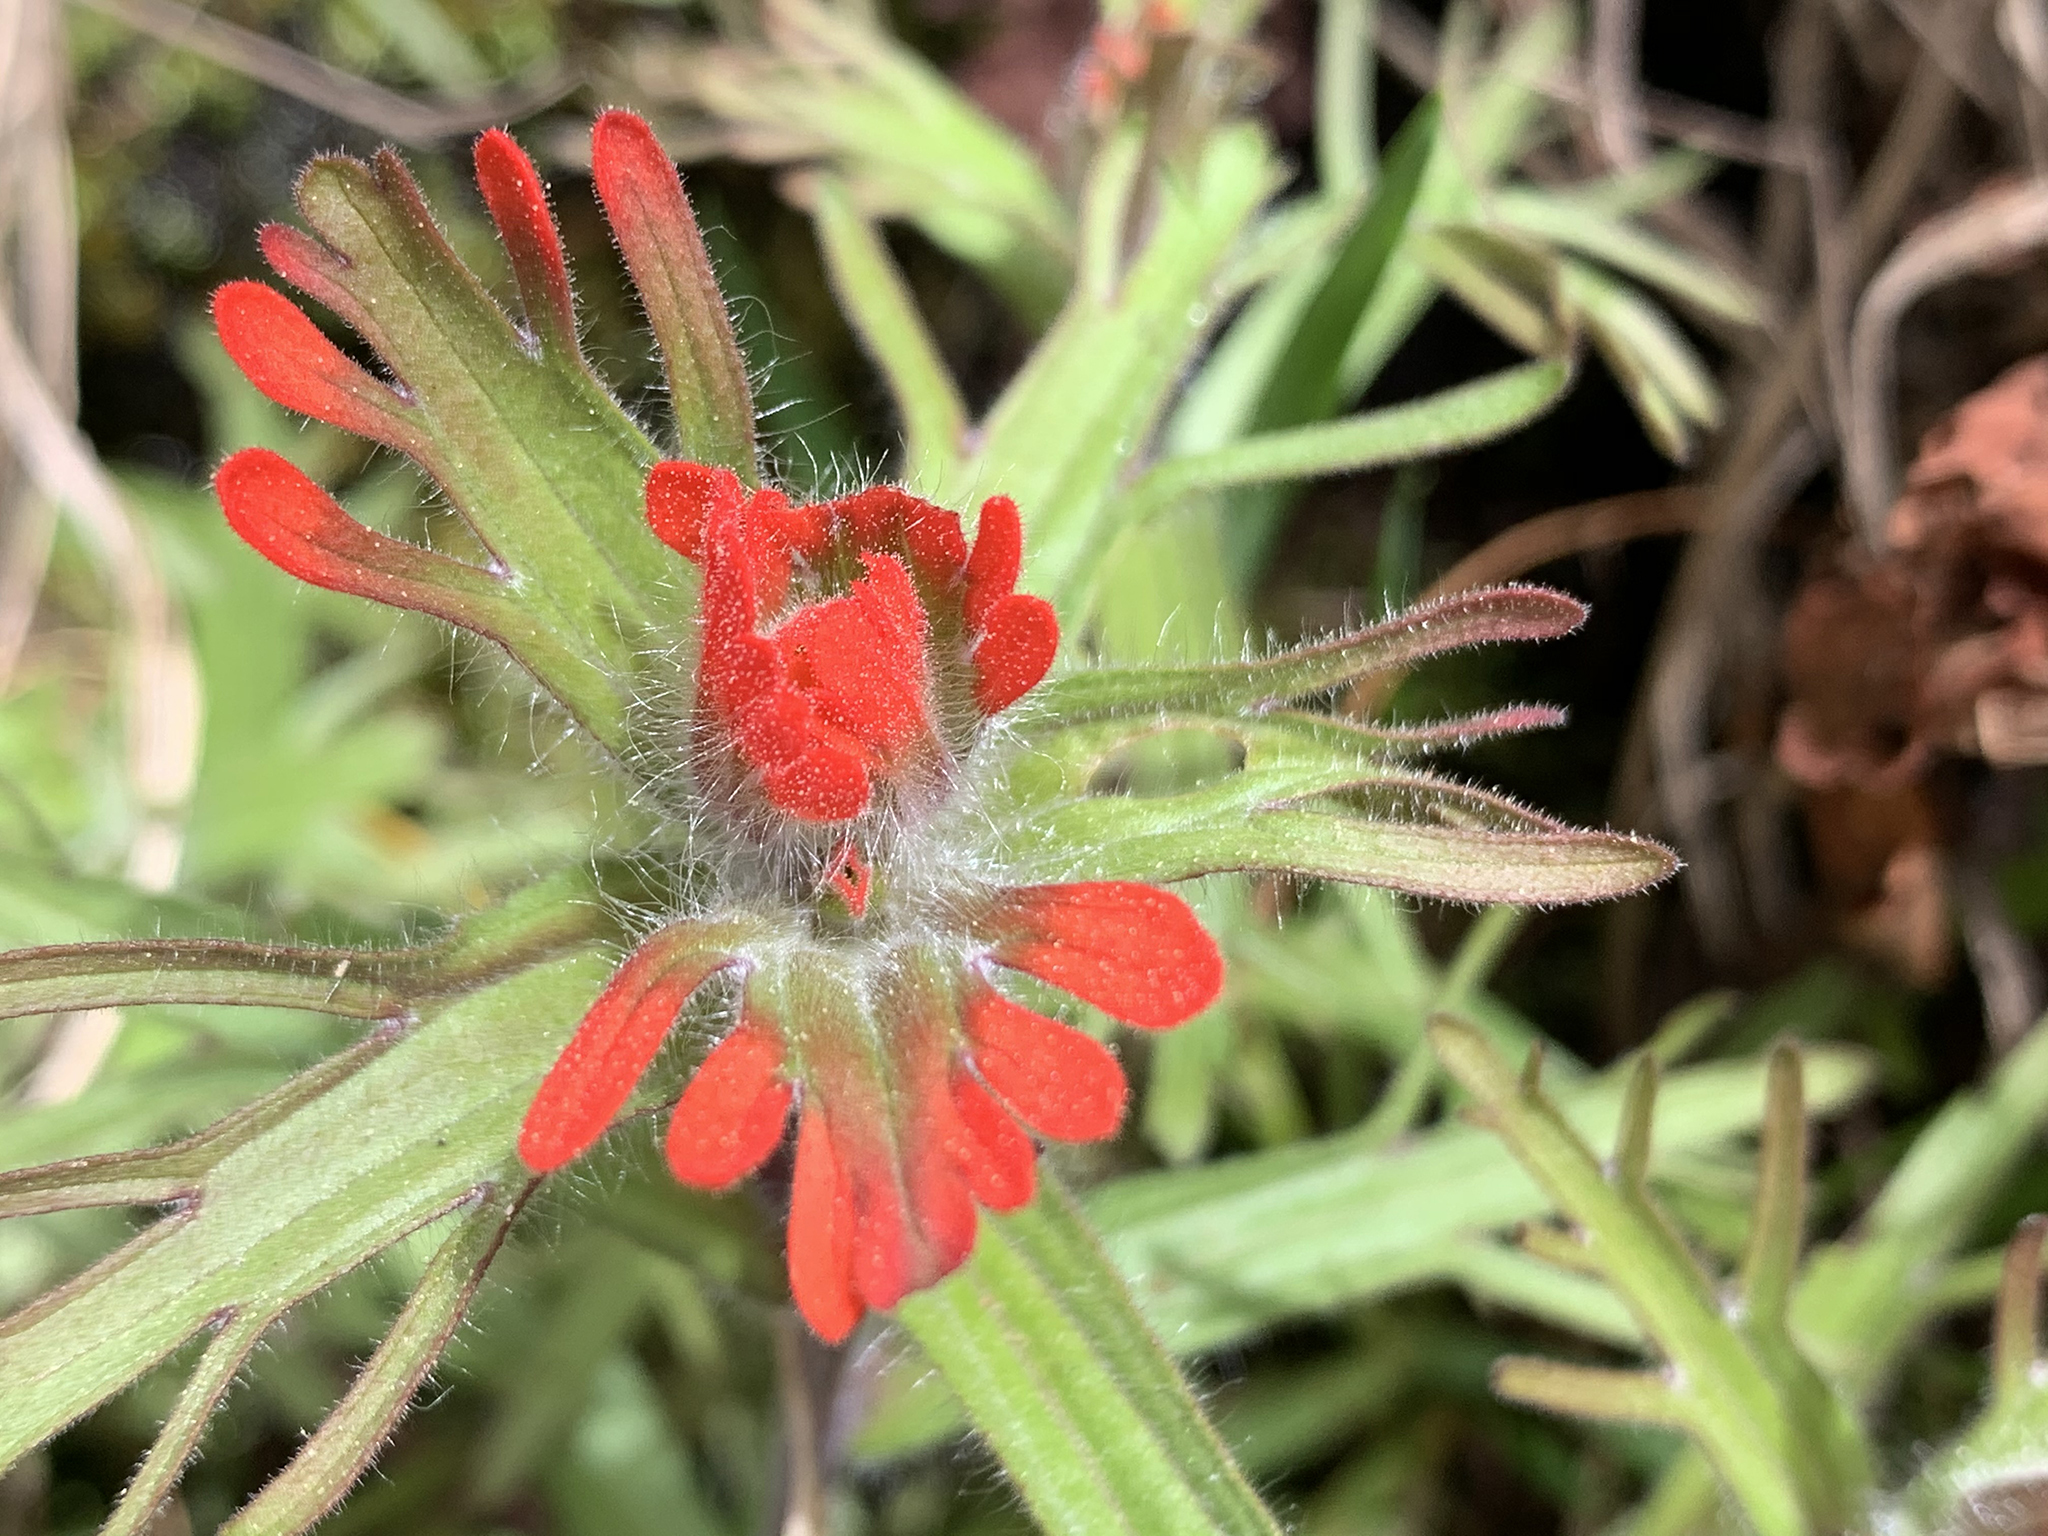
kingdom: Plantae
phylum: Tracheophyta
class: Magnoliopsida
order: Lamiales
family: Orobanchaceae
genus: Castilleja
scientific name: Castilleja hispida
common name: Bristly paintbrush
